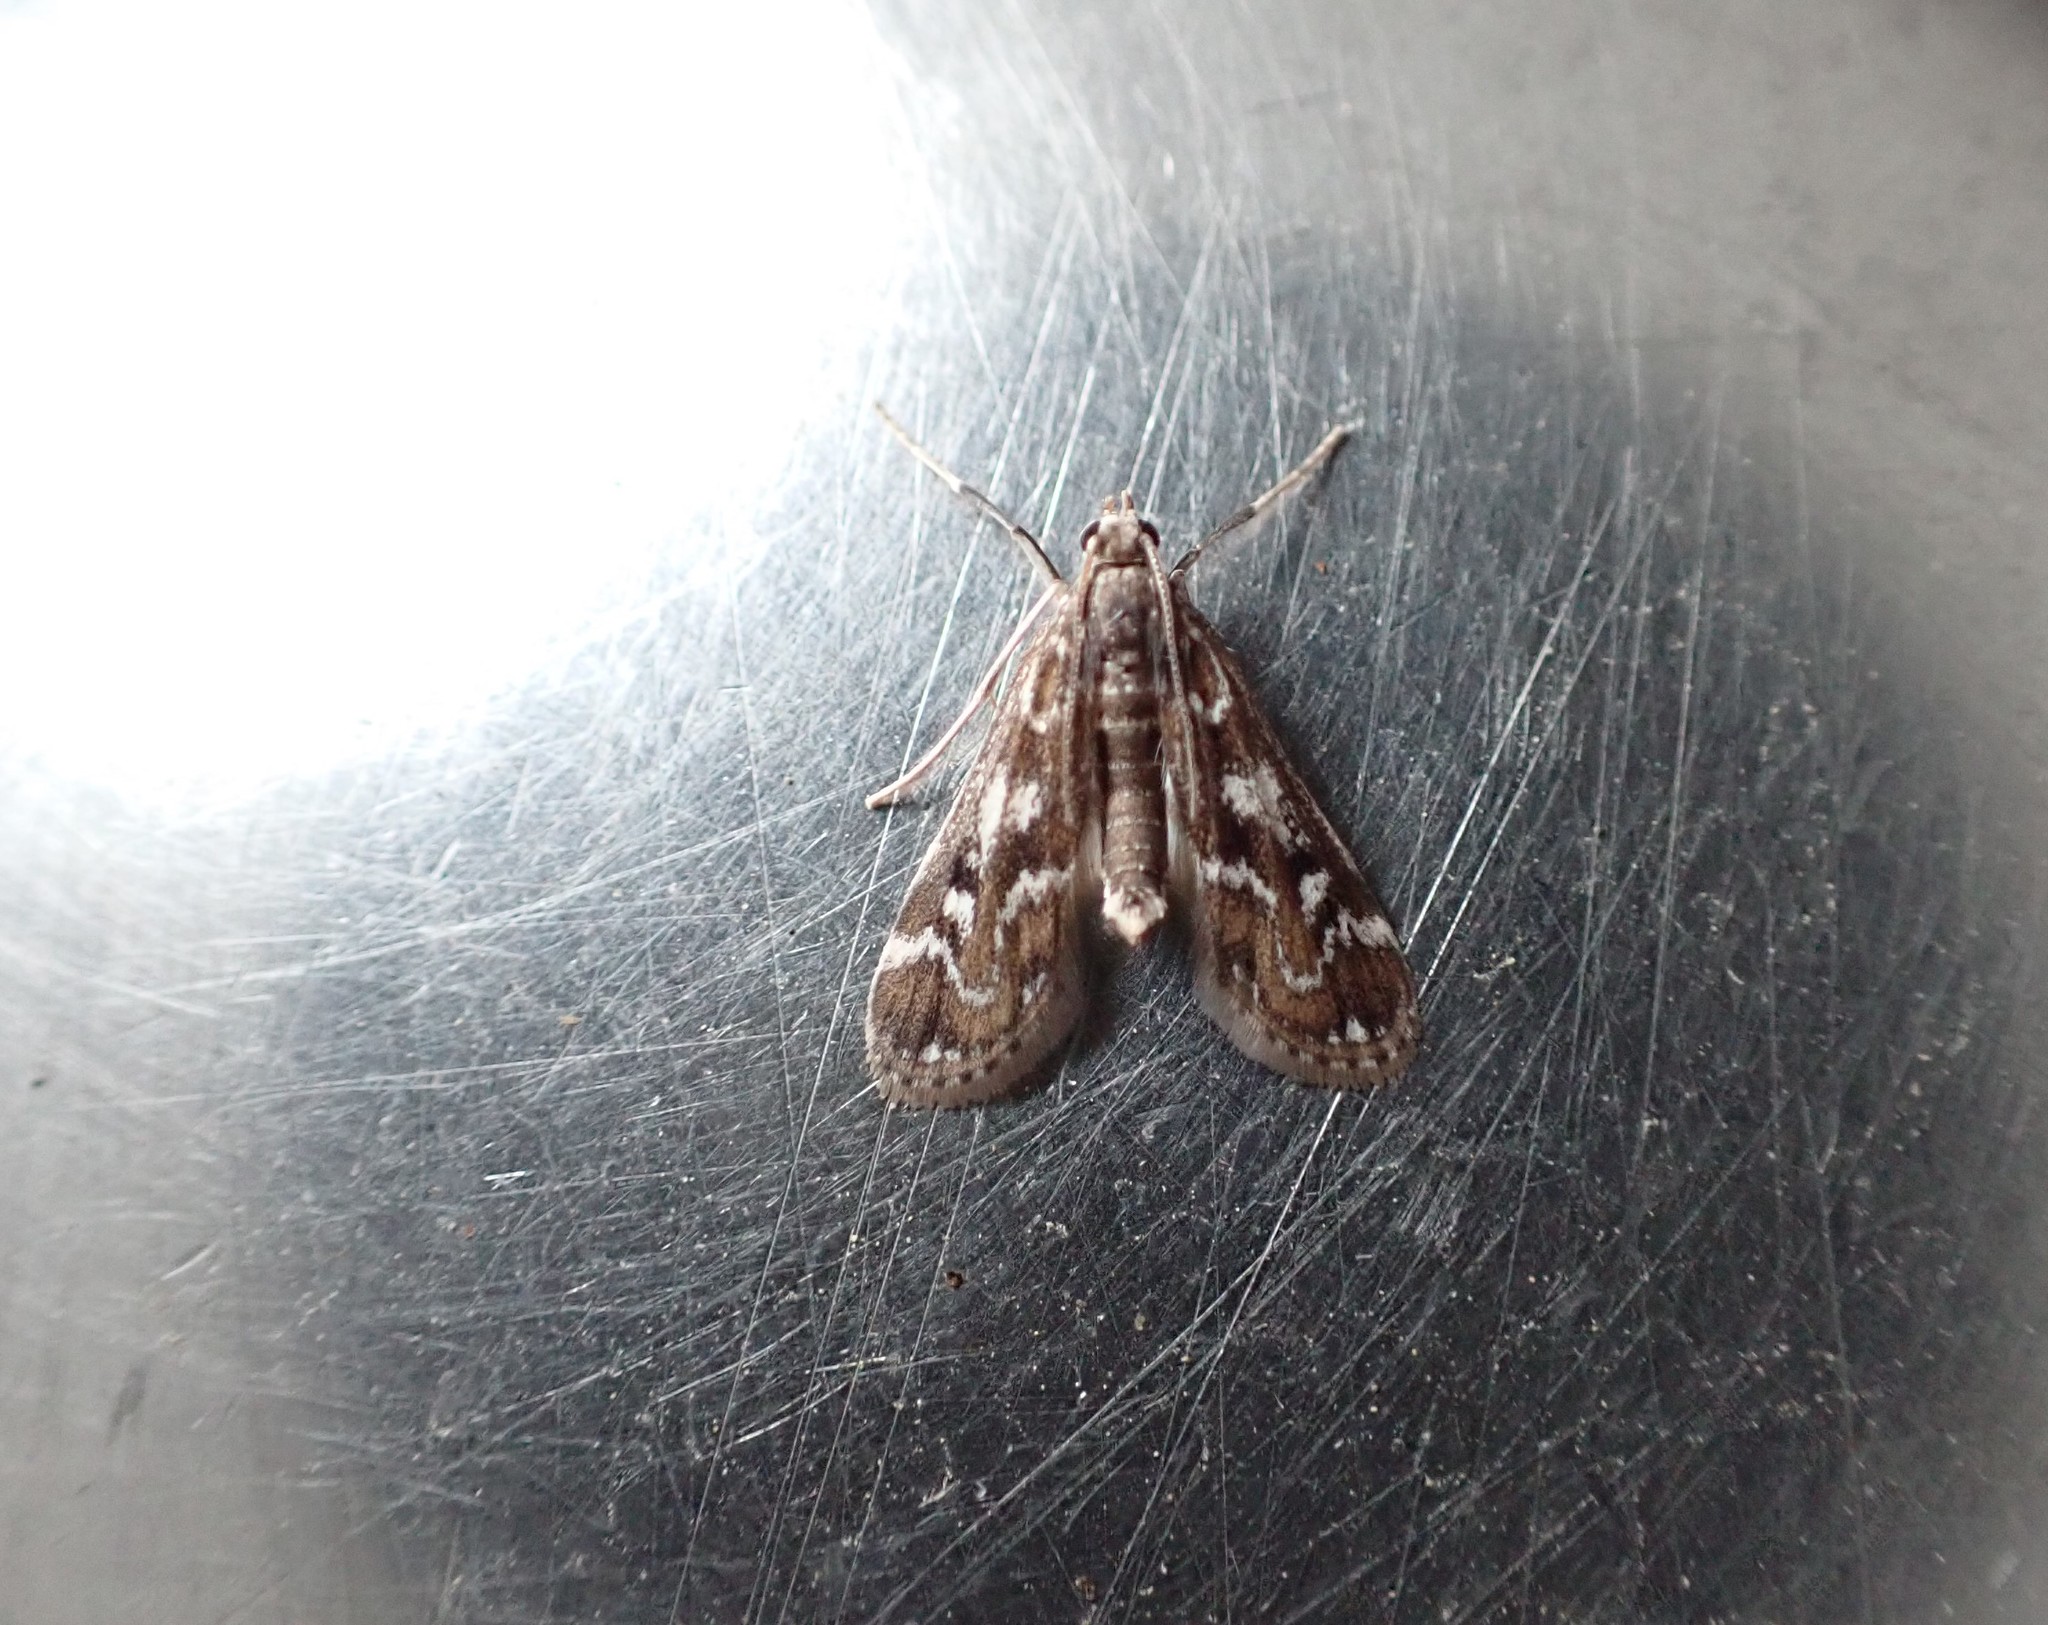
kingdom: Animalia
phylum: Arthropoda
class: Insecta
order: Lepidoptera
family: Crambidae
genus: Hygraula
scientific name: Hygraula nitens
